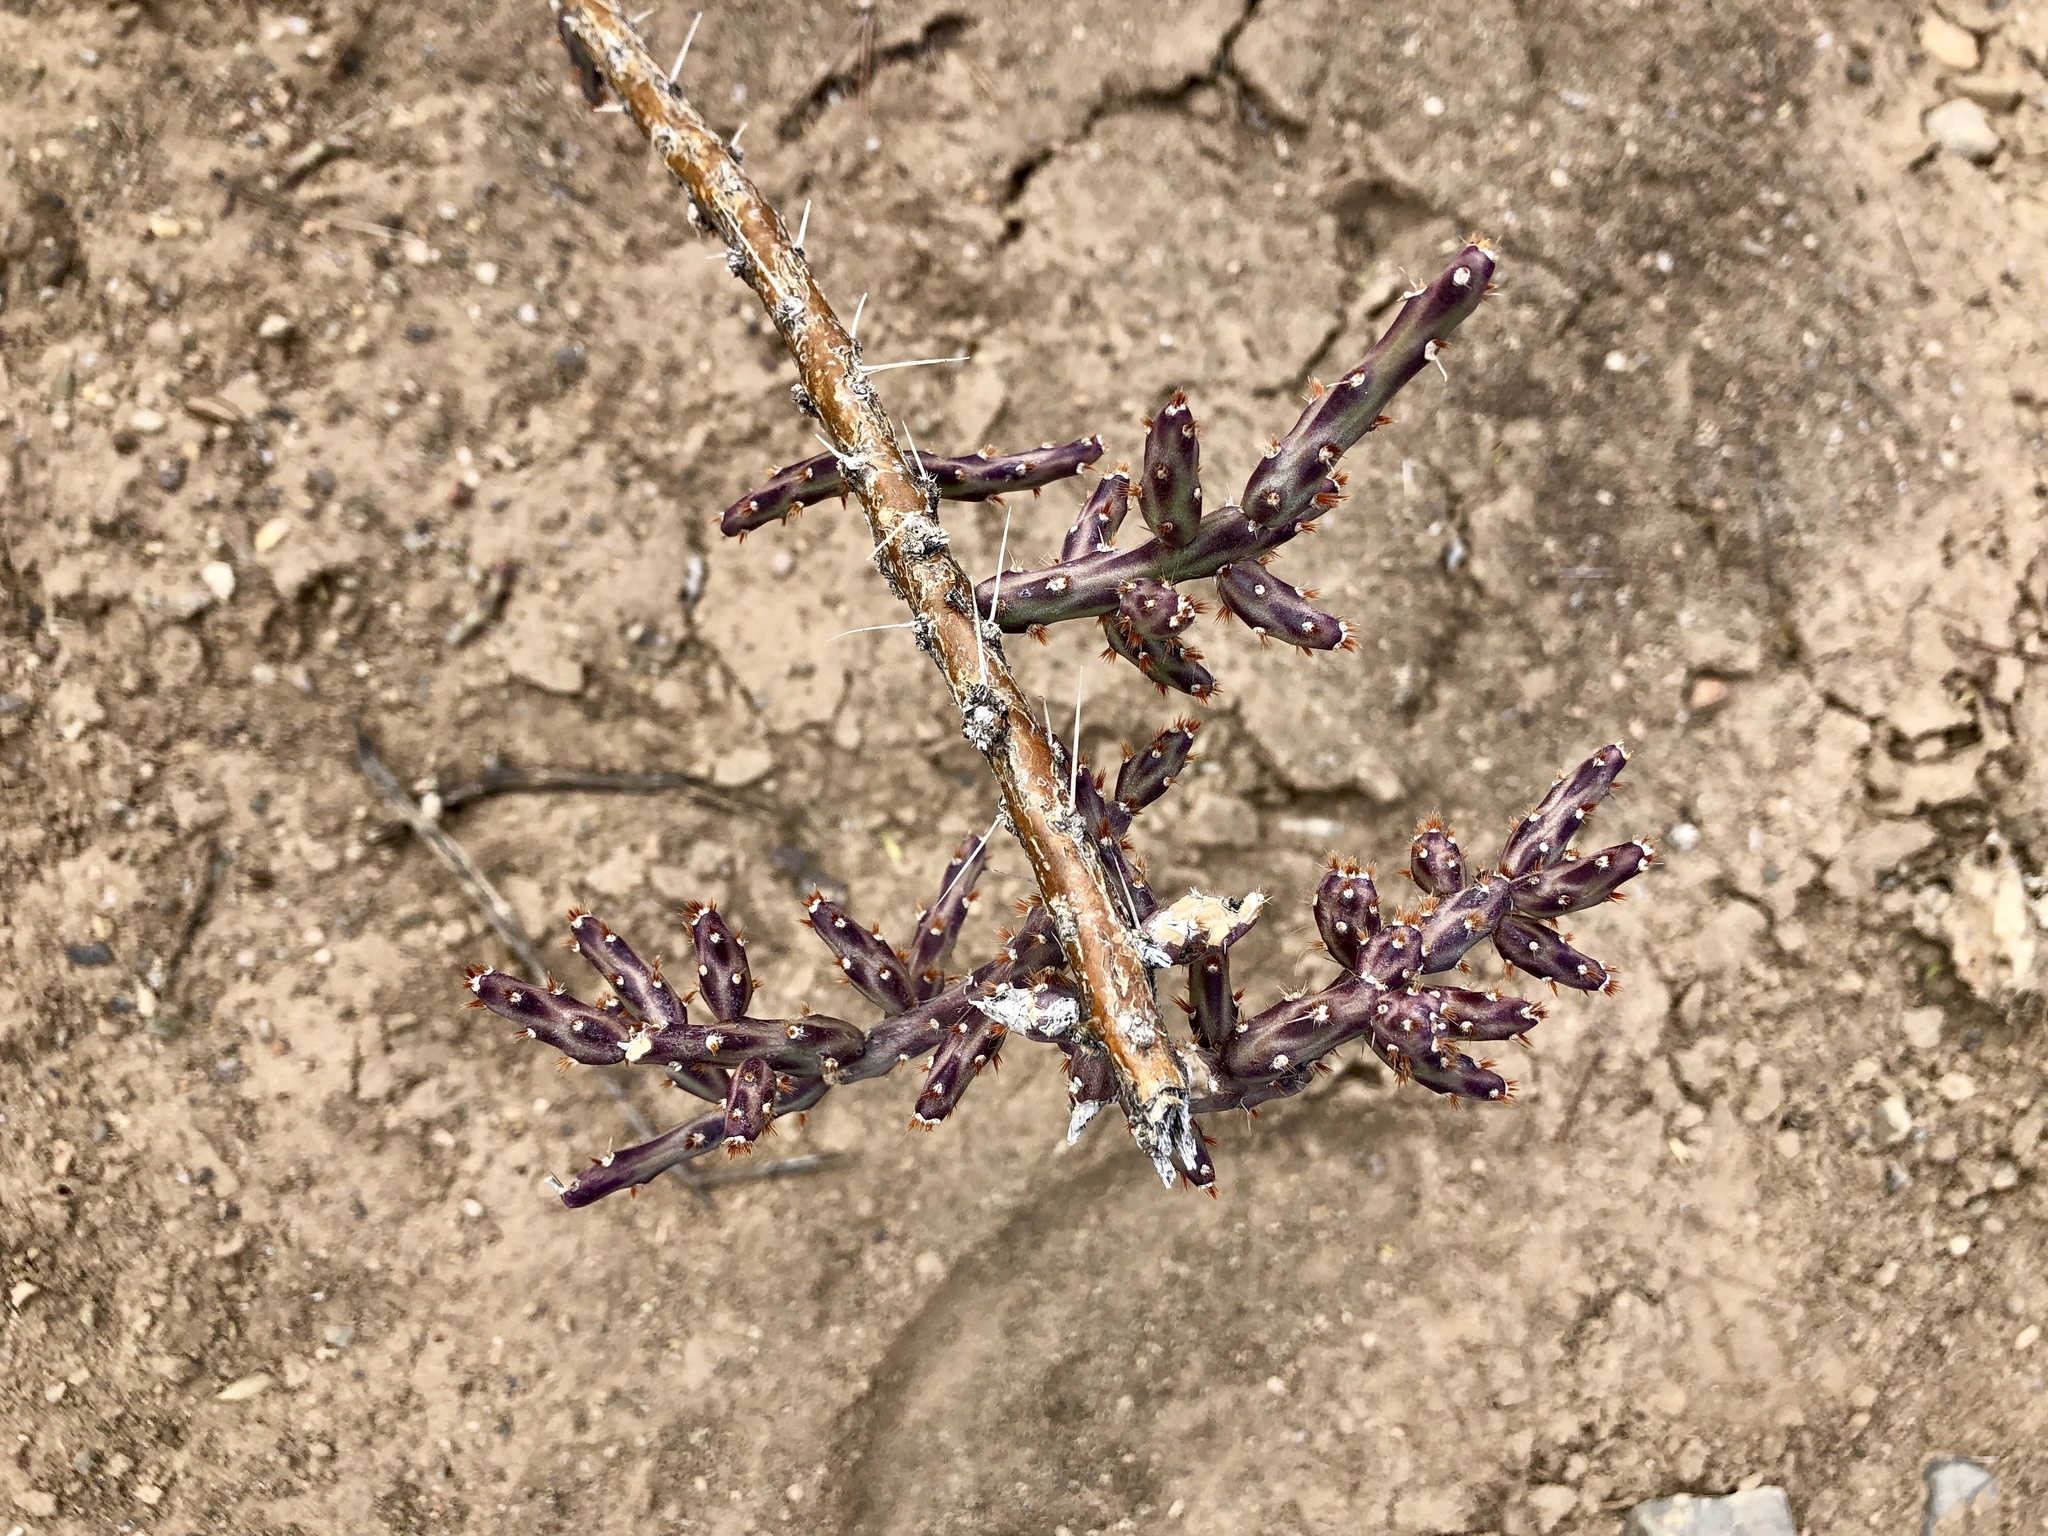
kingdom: Plantae
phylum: Tracheophyta
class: Magnoliopsida
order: Caryophyllales
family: Cactaceae
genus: Cylindropuntia
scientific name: Cylindropuntia leptocaulis
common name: Christmas cactus
